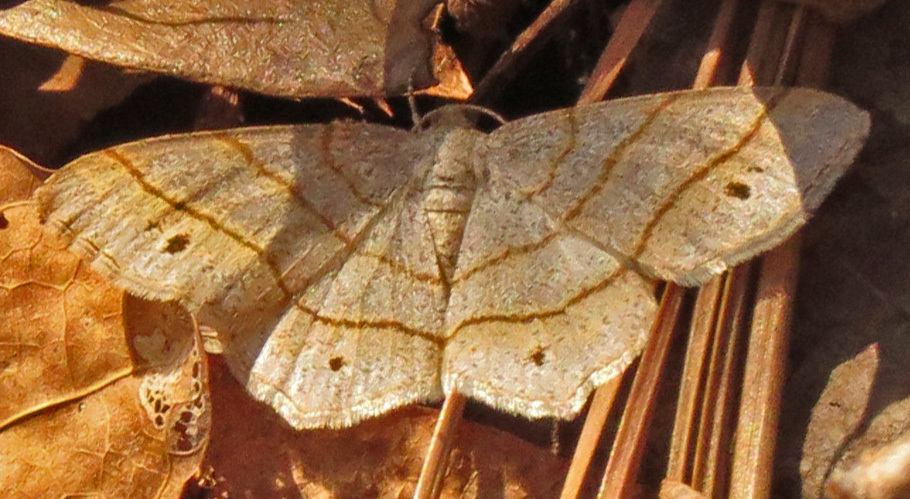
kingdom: Animalia
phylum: Arthropoda
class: Insecta
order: Lepidoptera
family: Geometridae
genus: Trigrammia
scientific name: Trigrammia quadrinotaria
